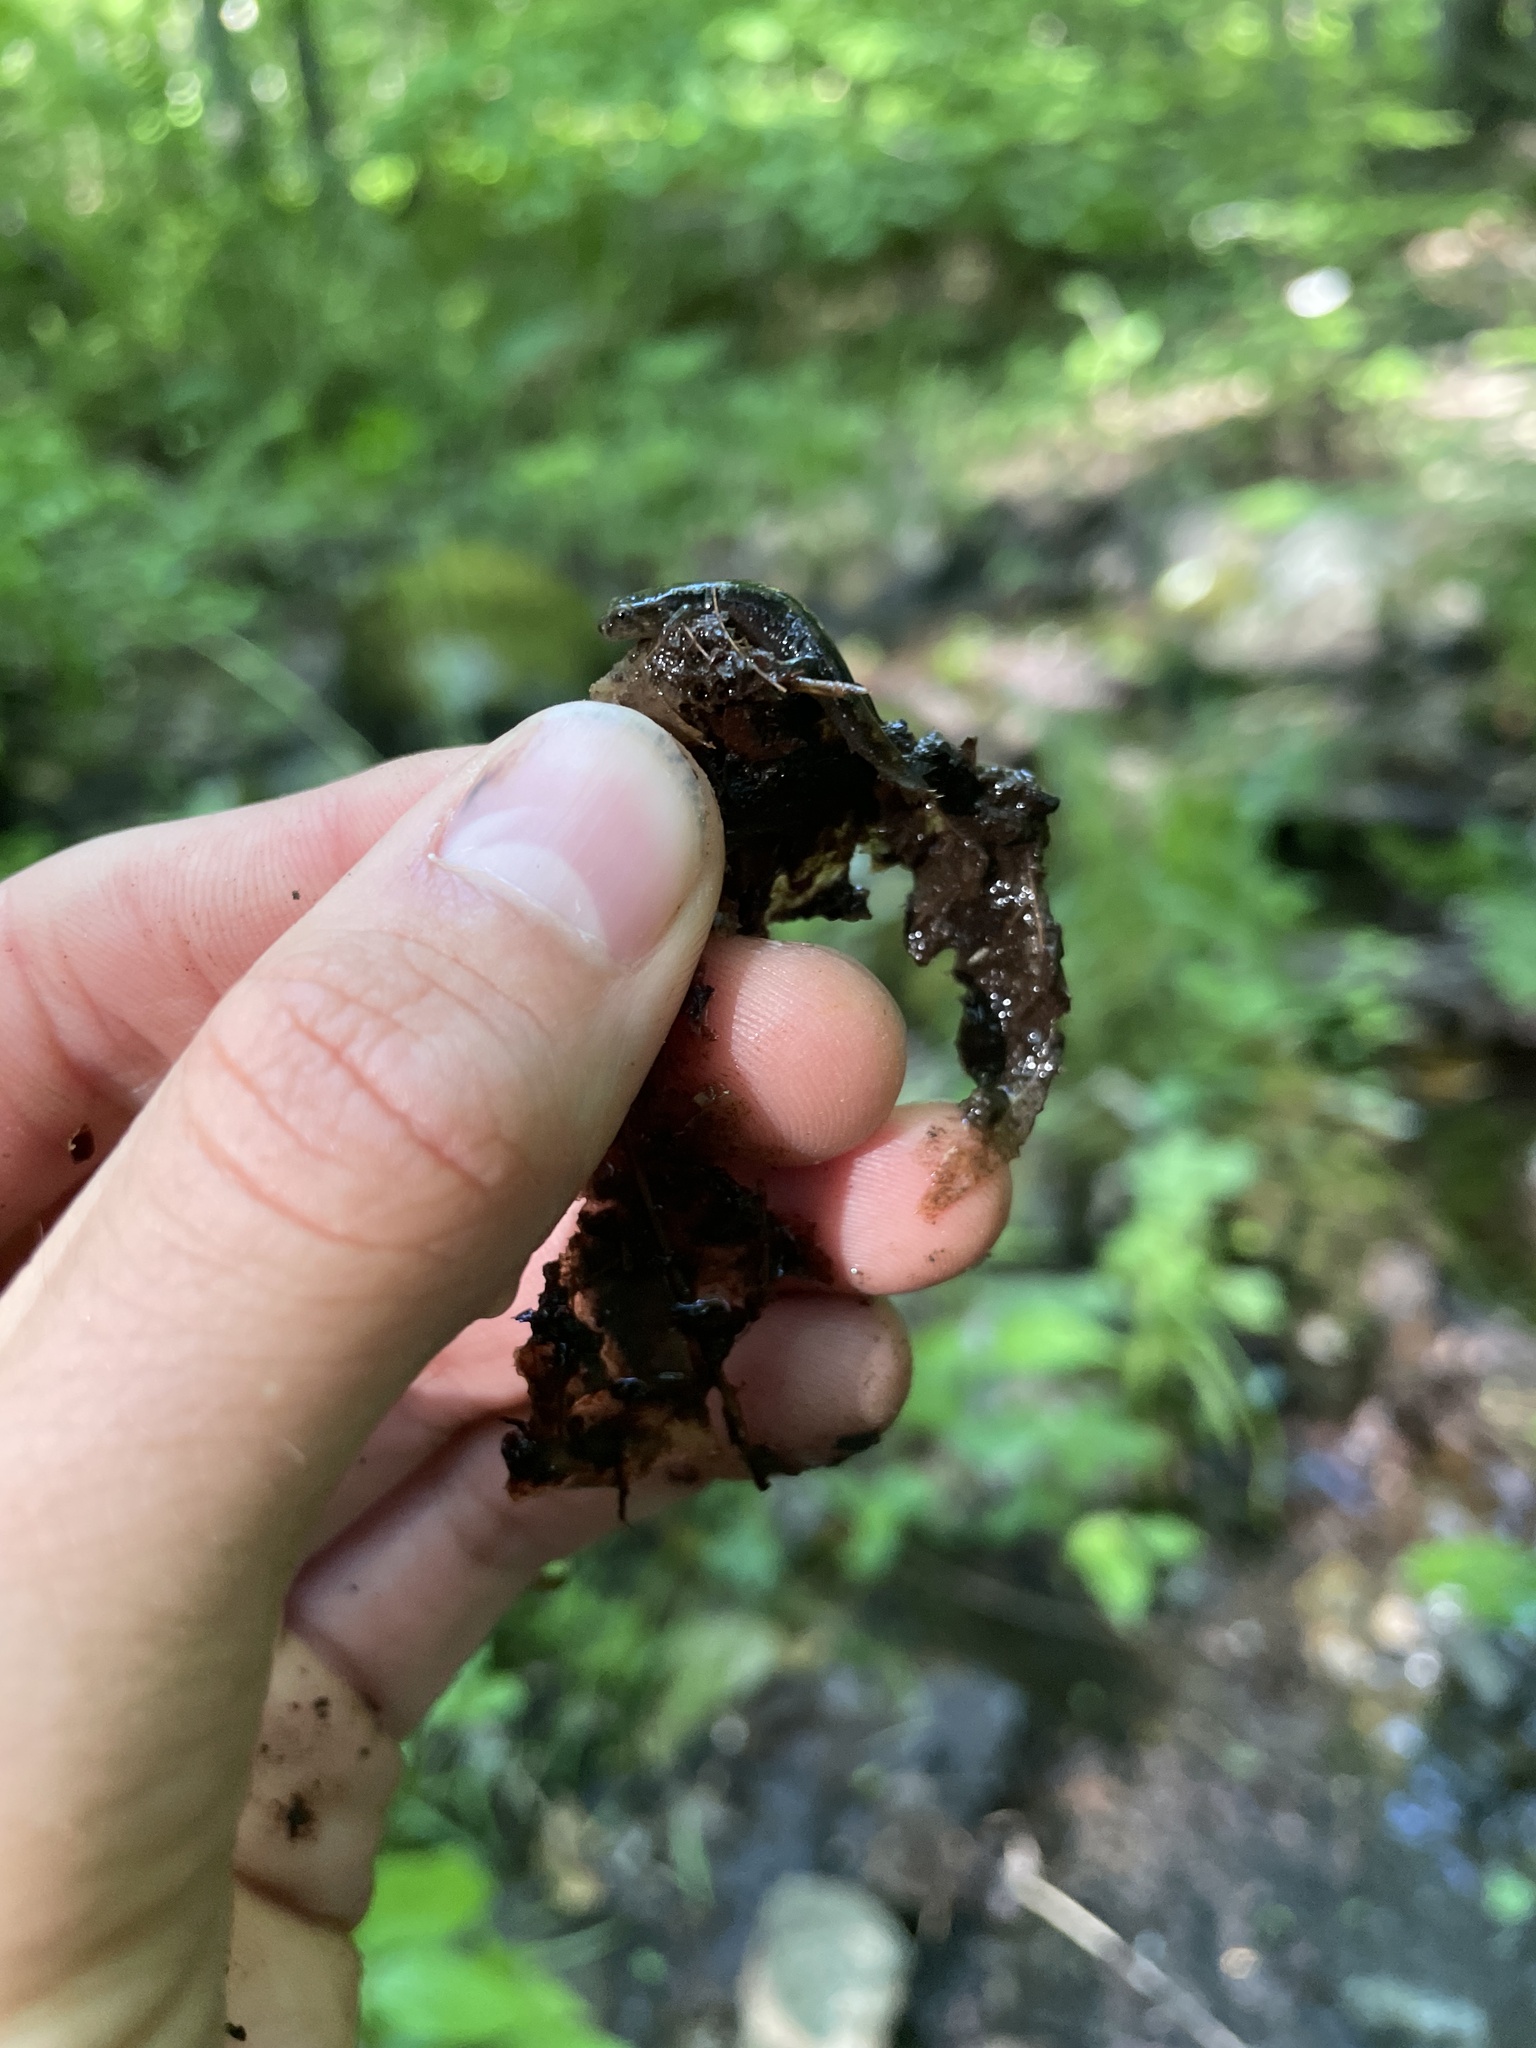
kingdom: Animalia
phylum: Chordata
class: Amphibia
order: Caudata
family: Plethodontidae
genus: Desmognathus
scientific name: Desmognathus fuscus
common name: Northern dusky salamander
